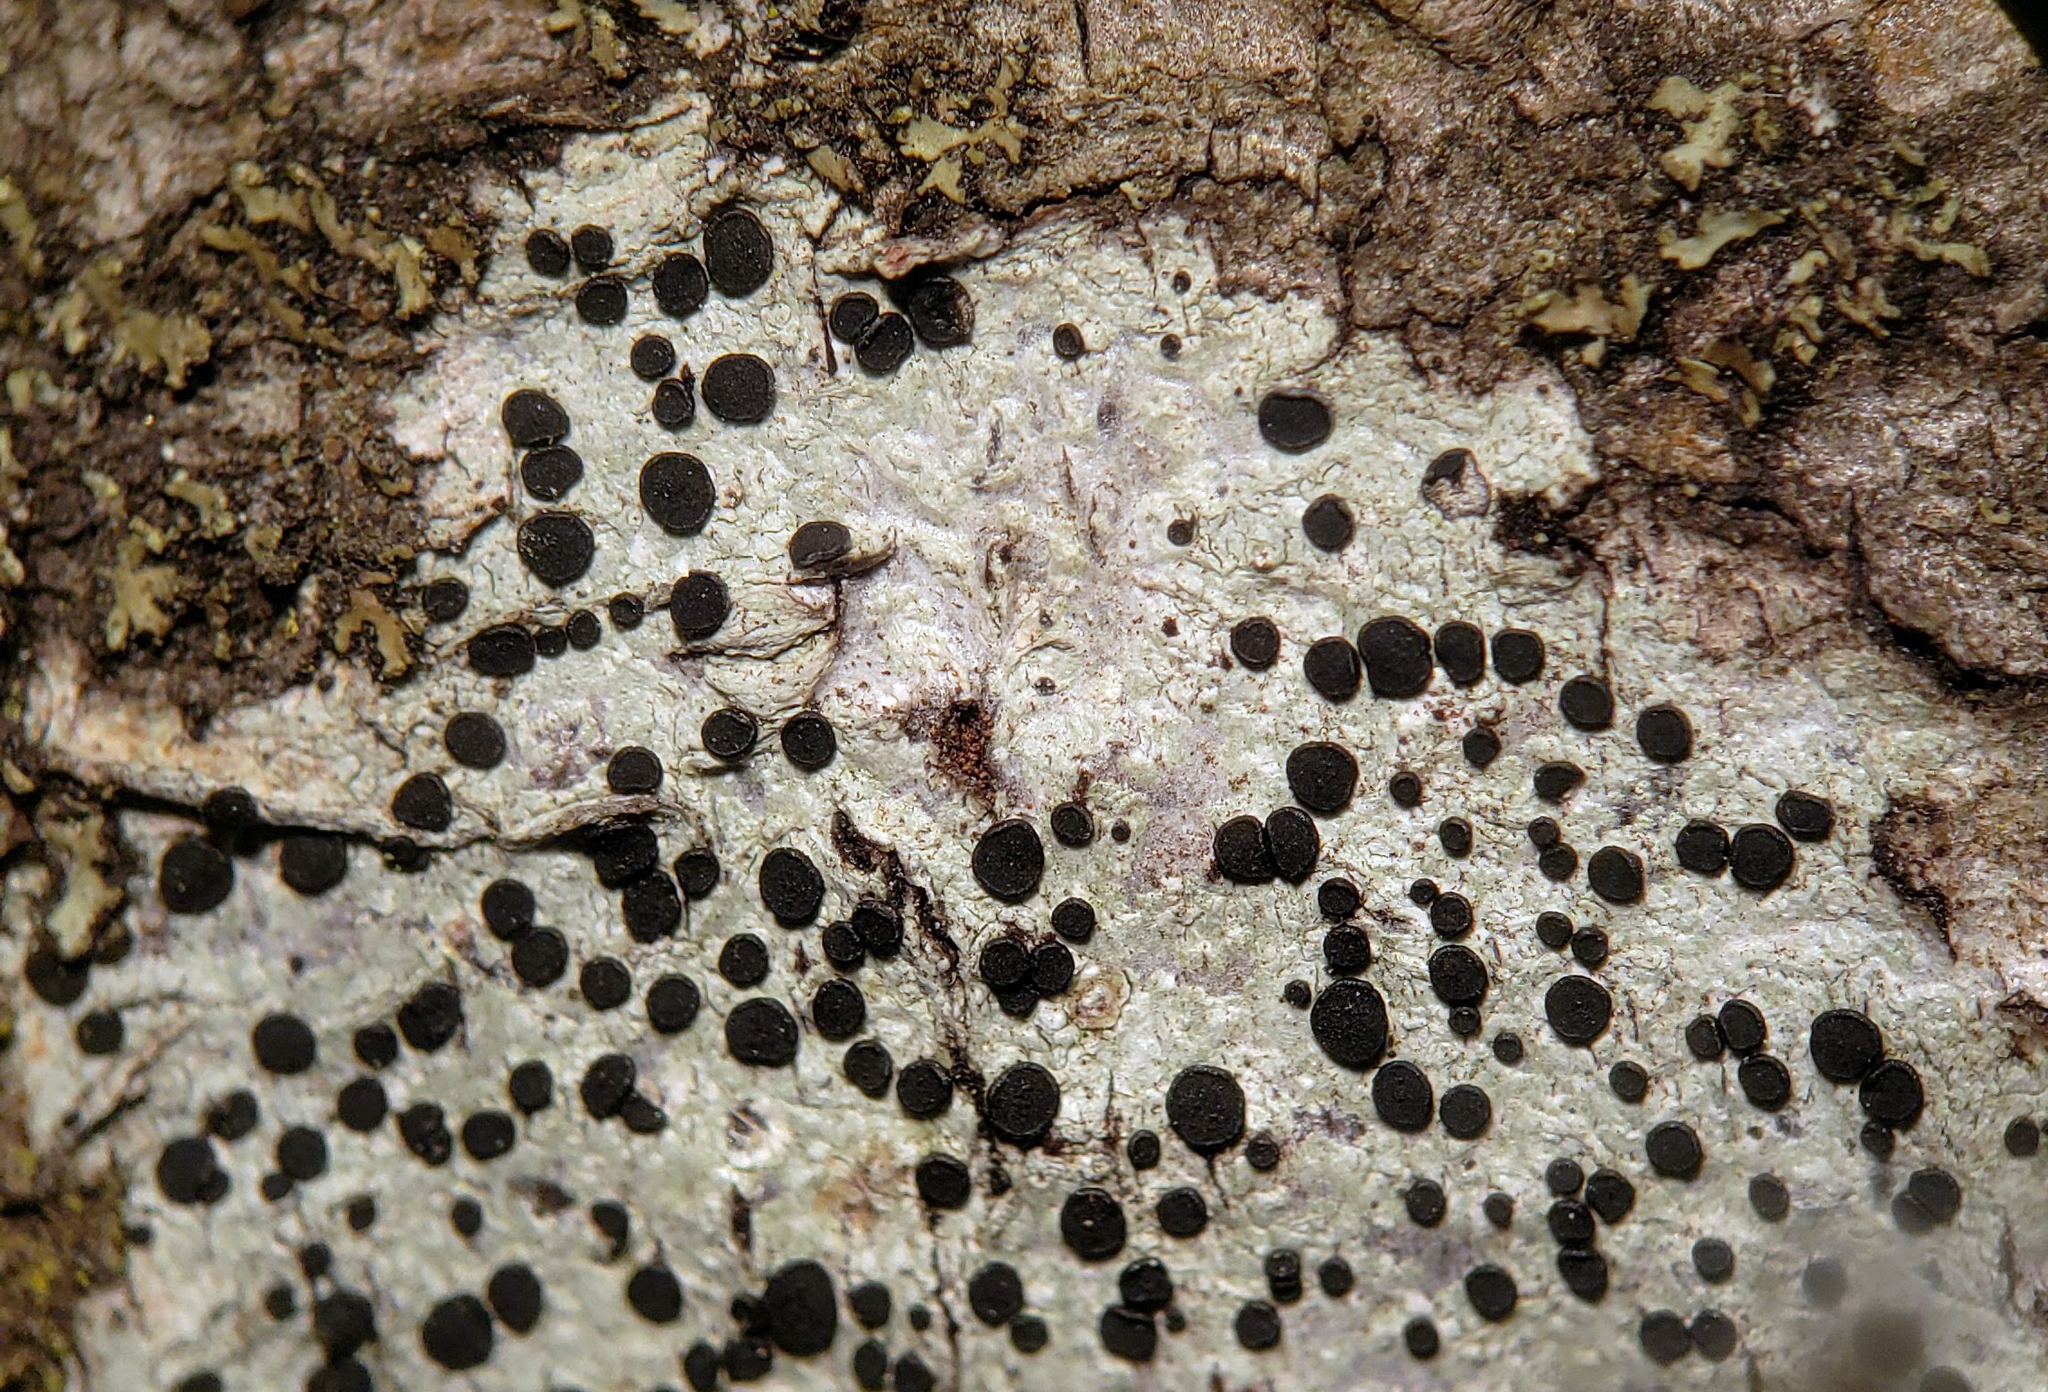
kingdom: Fungi
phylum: Ascomycota
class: Lecanoromycetes
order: Caliciales
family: Caliciaceae
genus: Buellia
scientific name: Buellia erubescens
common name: Common button lichen
